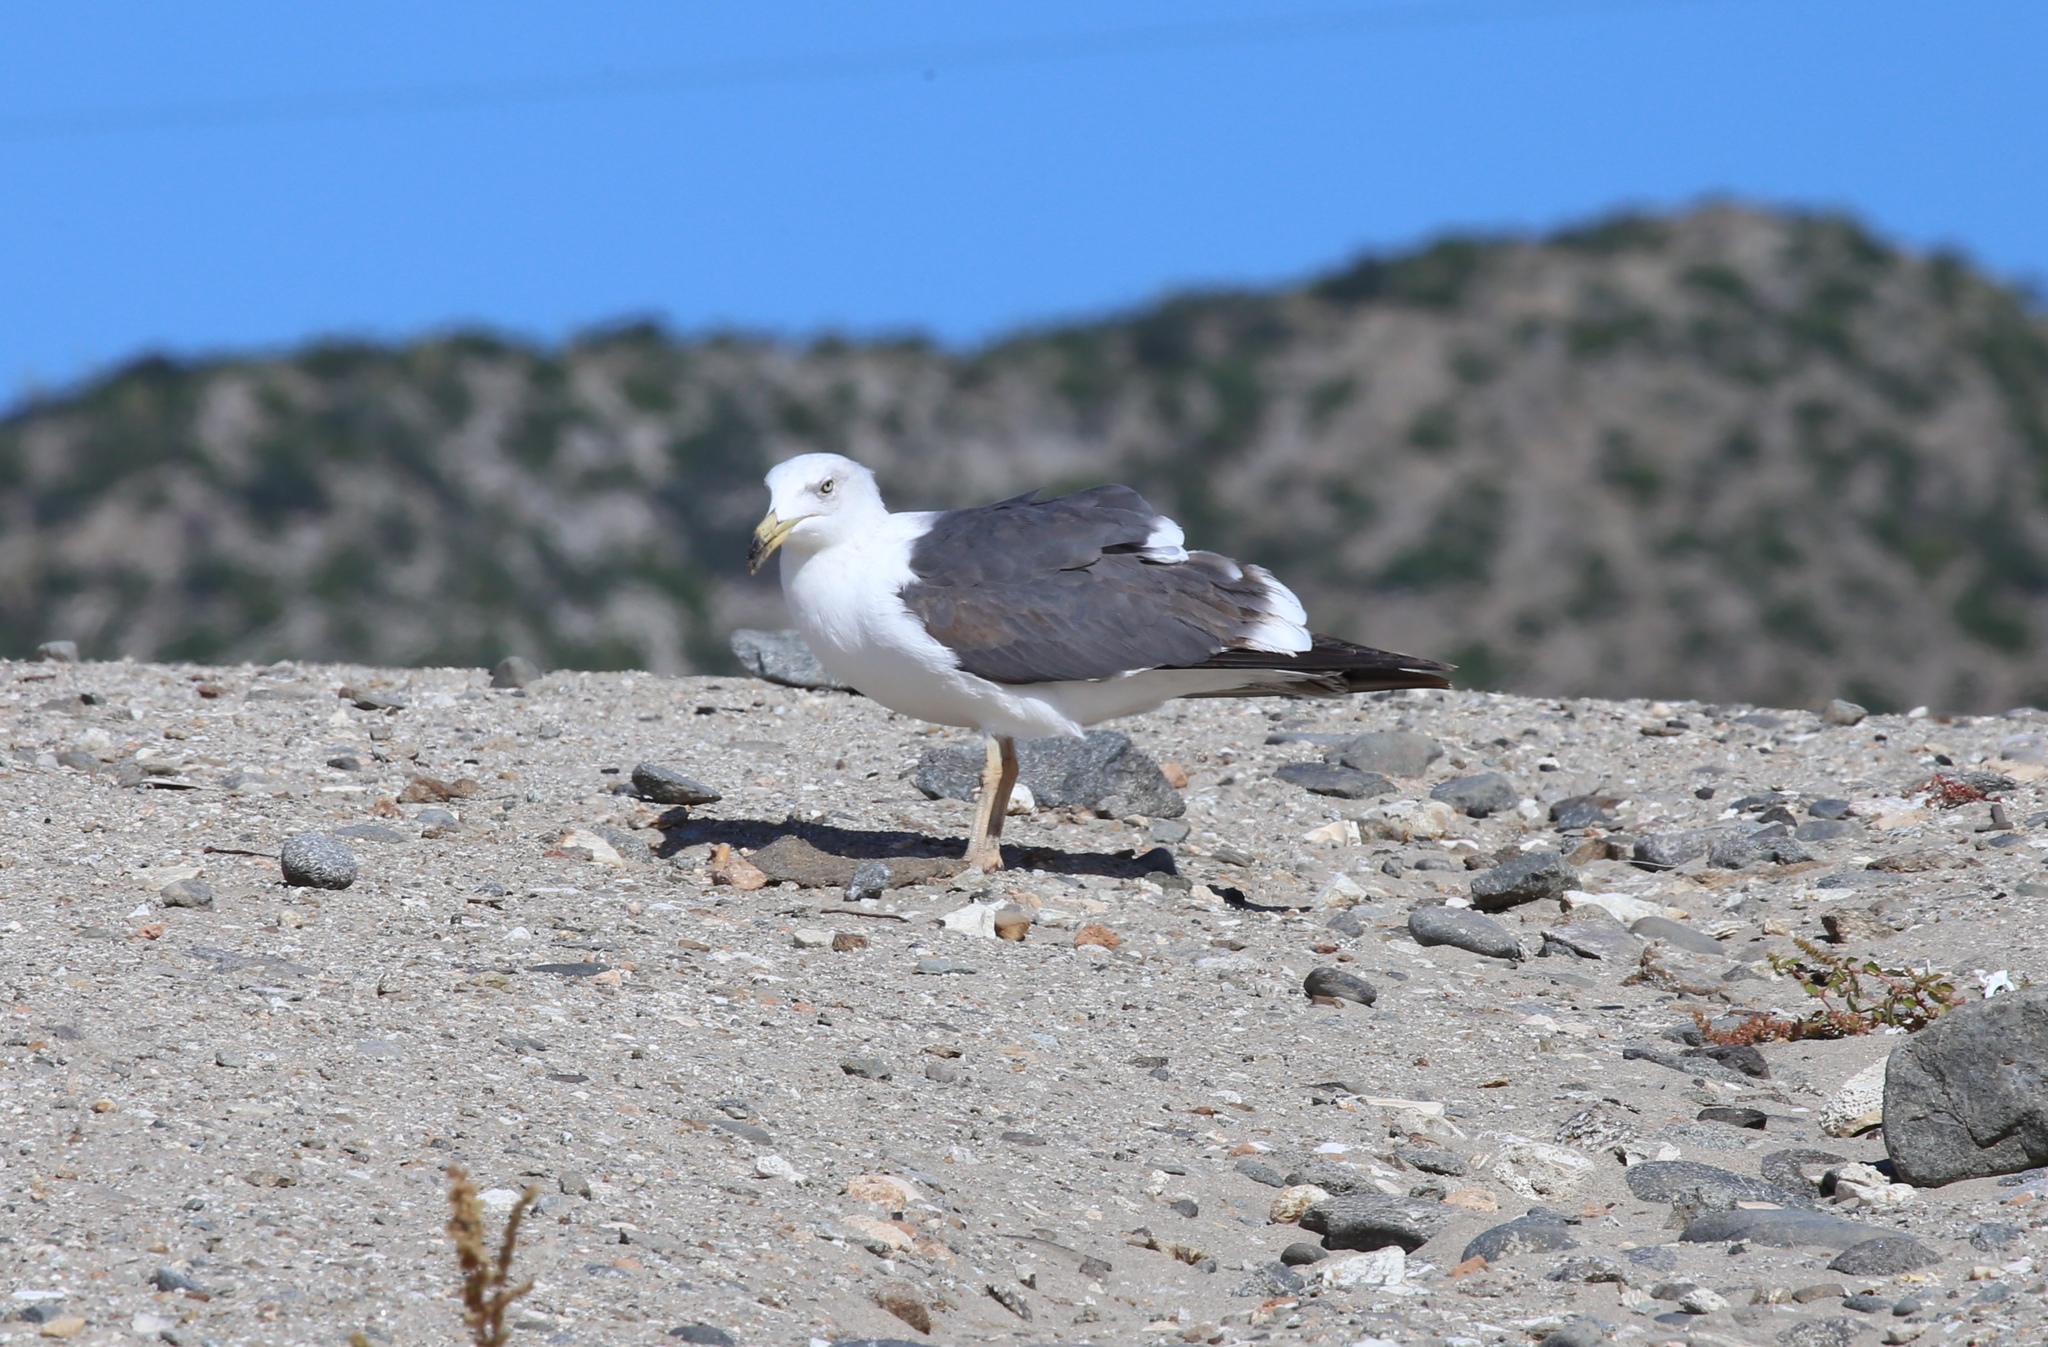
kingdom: Animalia
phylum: Chordata
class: Aves
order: Charadriiformes
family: Laridae
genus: Larus
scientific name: Larus livens
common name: Yellow-footed gull
